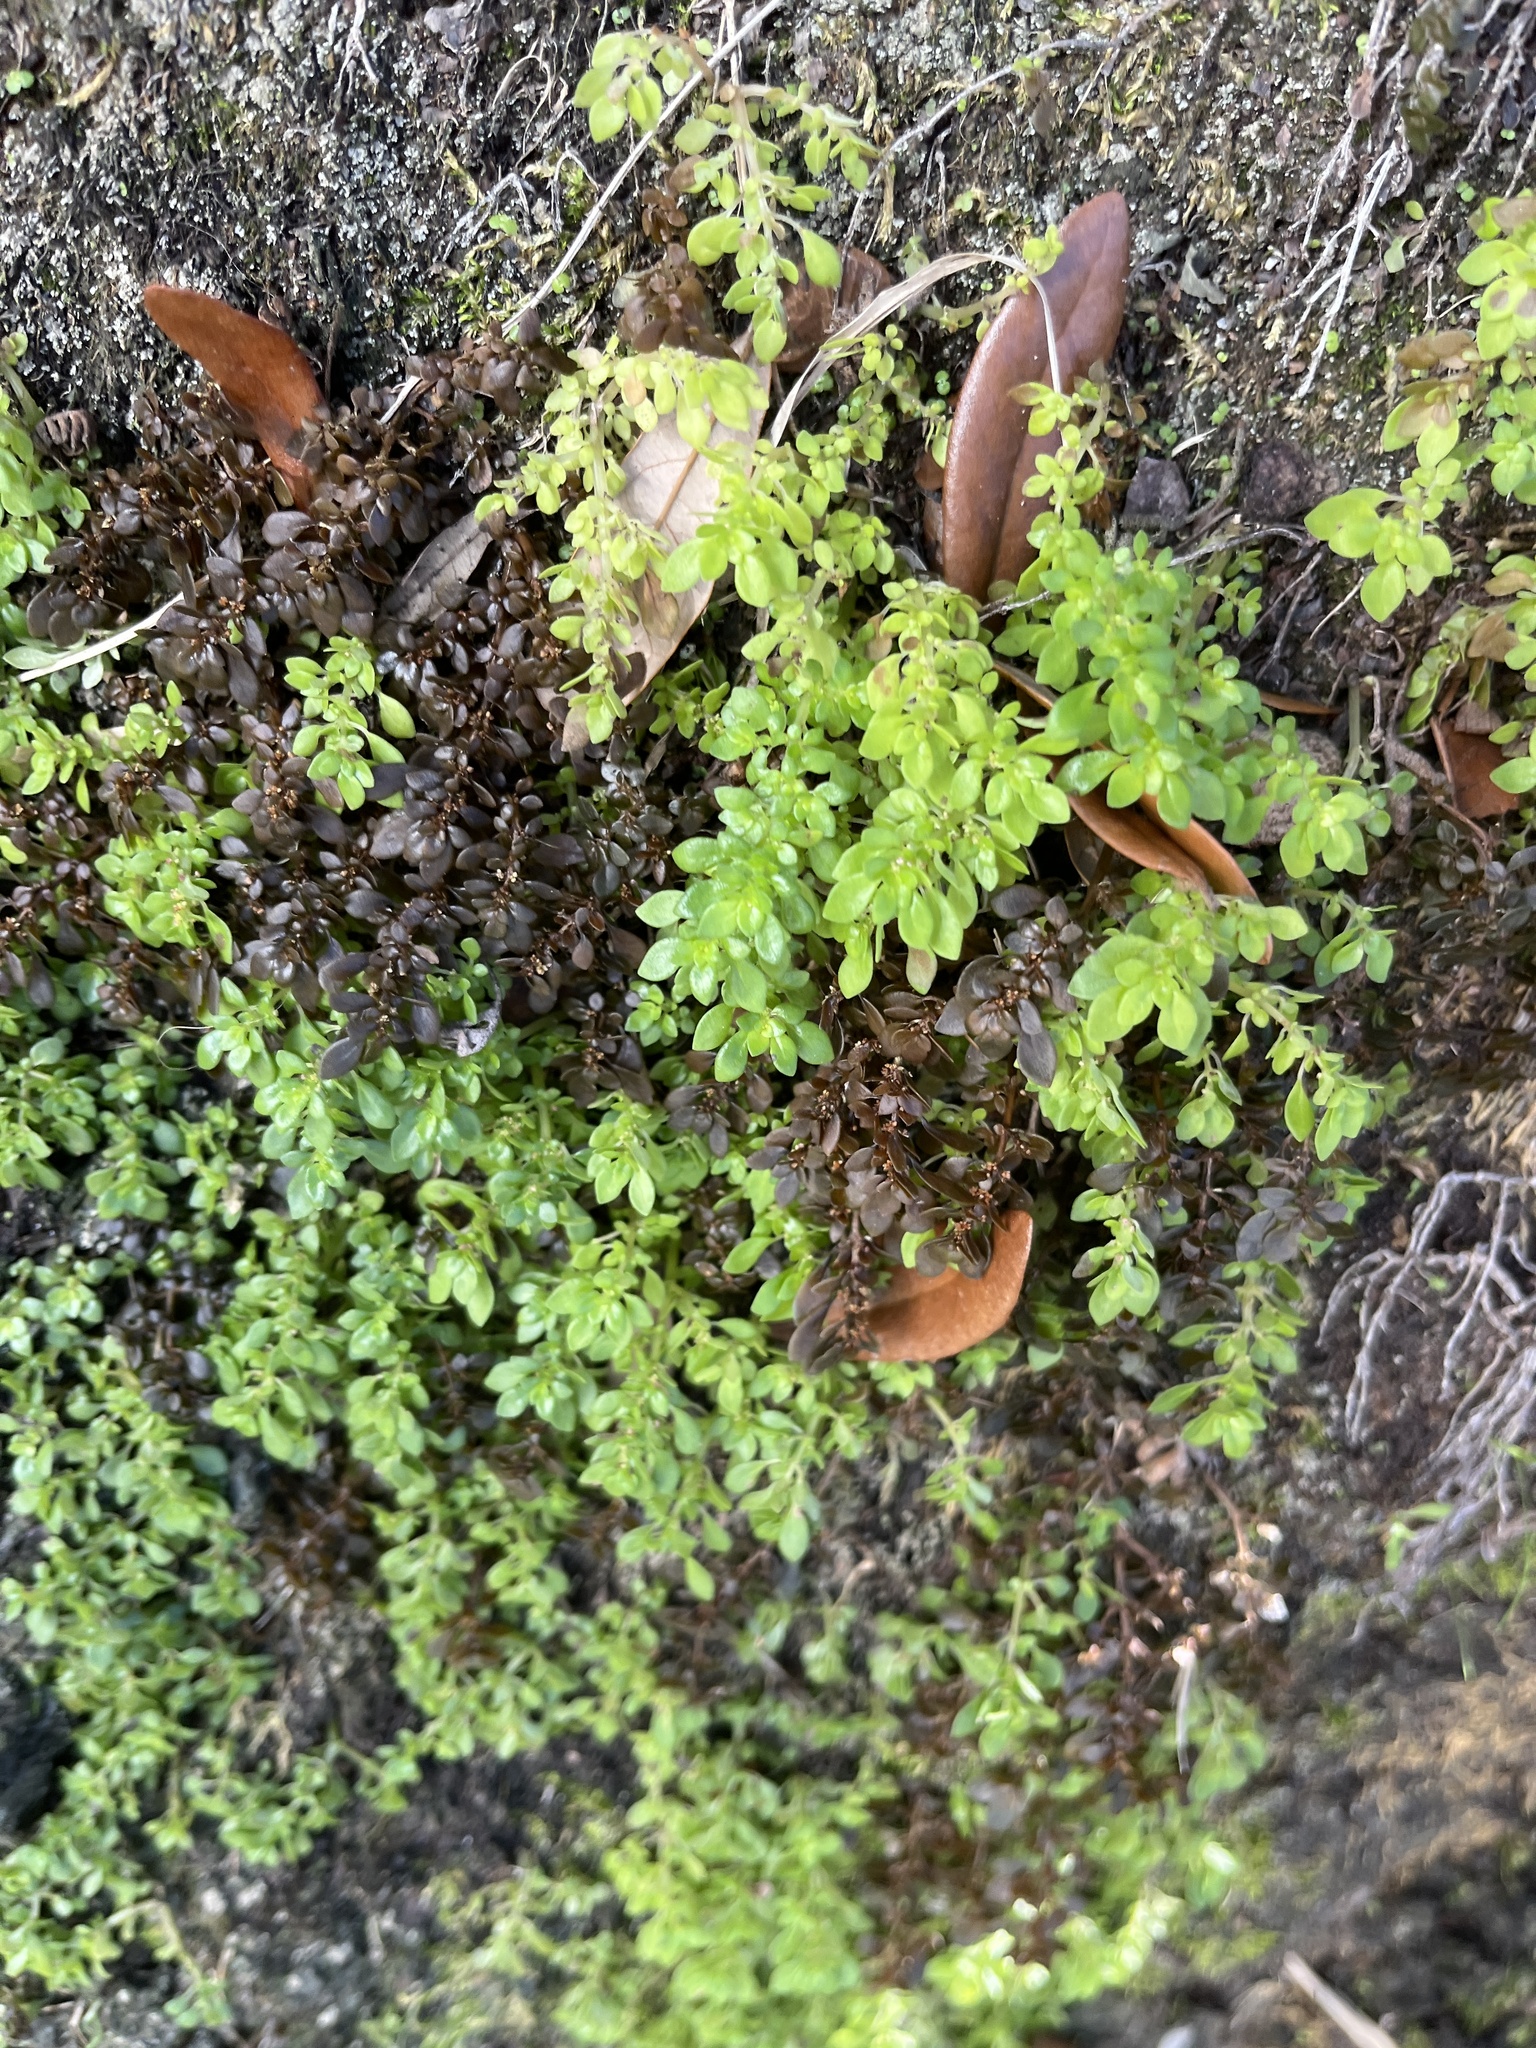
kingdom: Plantae
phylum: Tracheophyta
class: Magnoliopsida
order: Rosales
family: Urticaceae
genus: Pilea
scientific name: Pilea microphylla
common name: Artillery-plant
